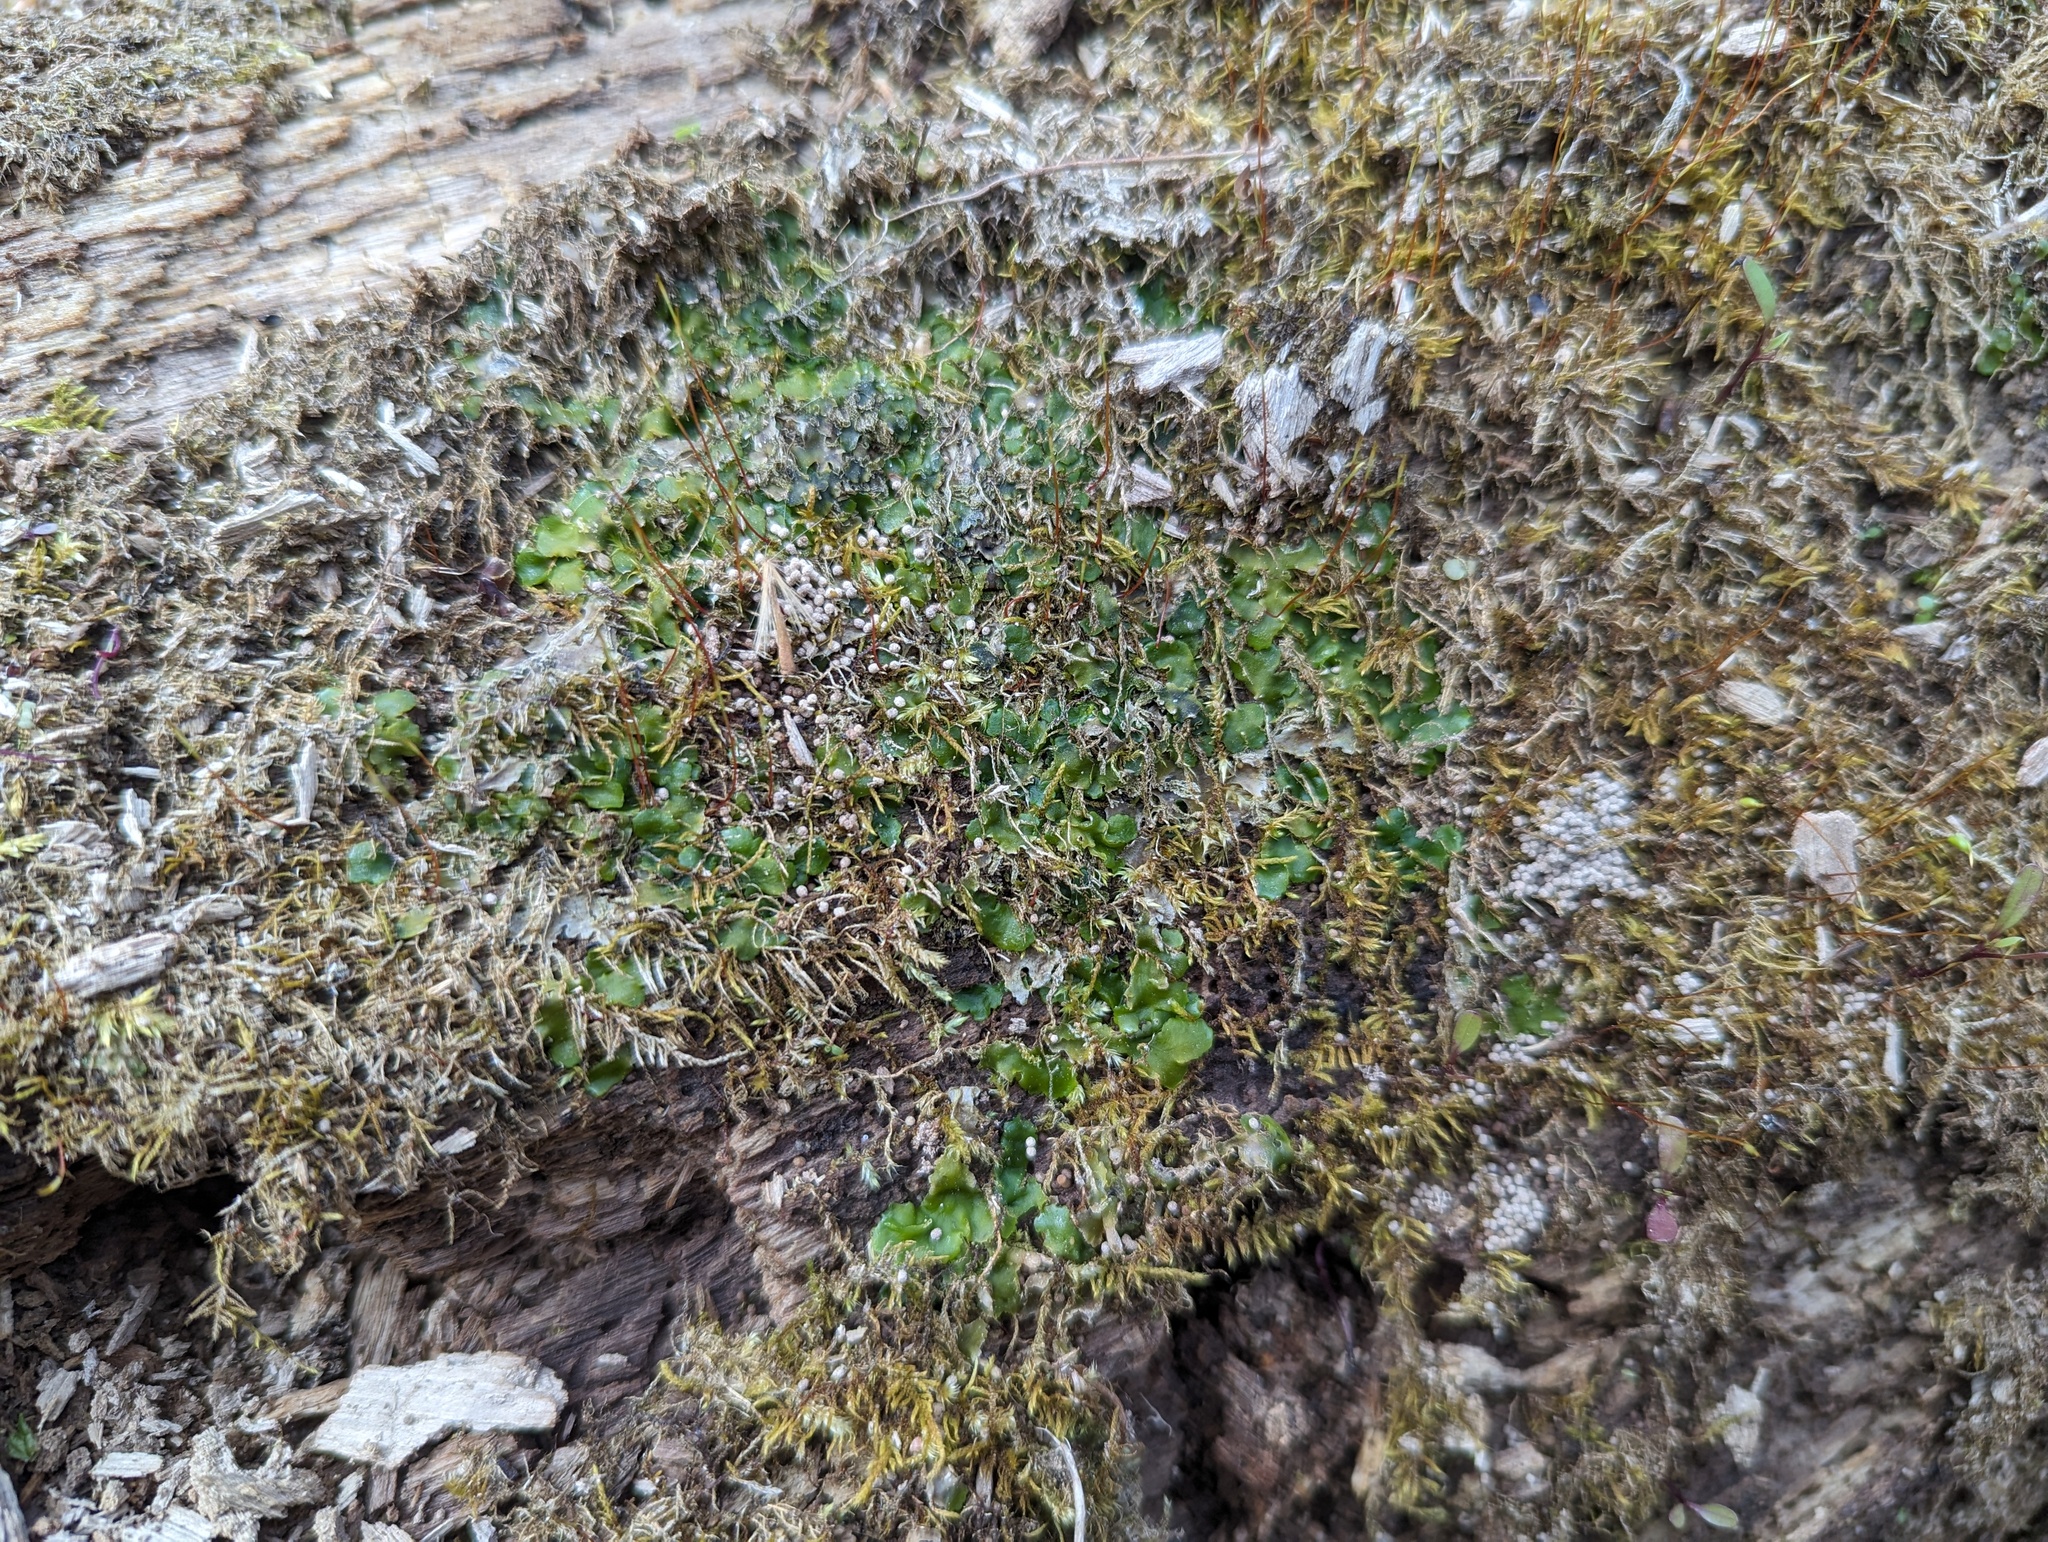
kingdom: Plantae
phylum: Marchantiophyta
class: Jungermanniopsida
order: Metzgeriales
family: Aneuraceae
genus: Aneura
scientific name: Aneura pinguis
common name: Common greasewort
